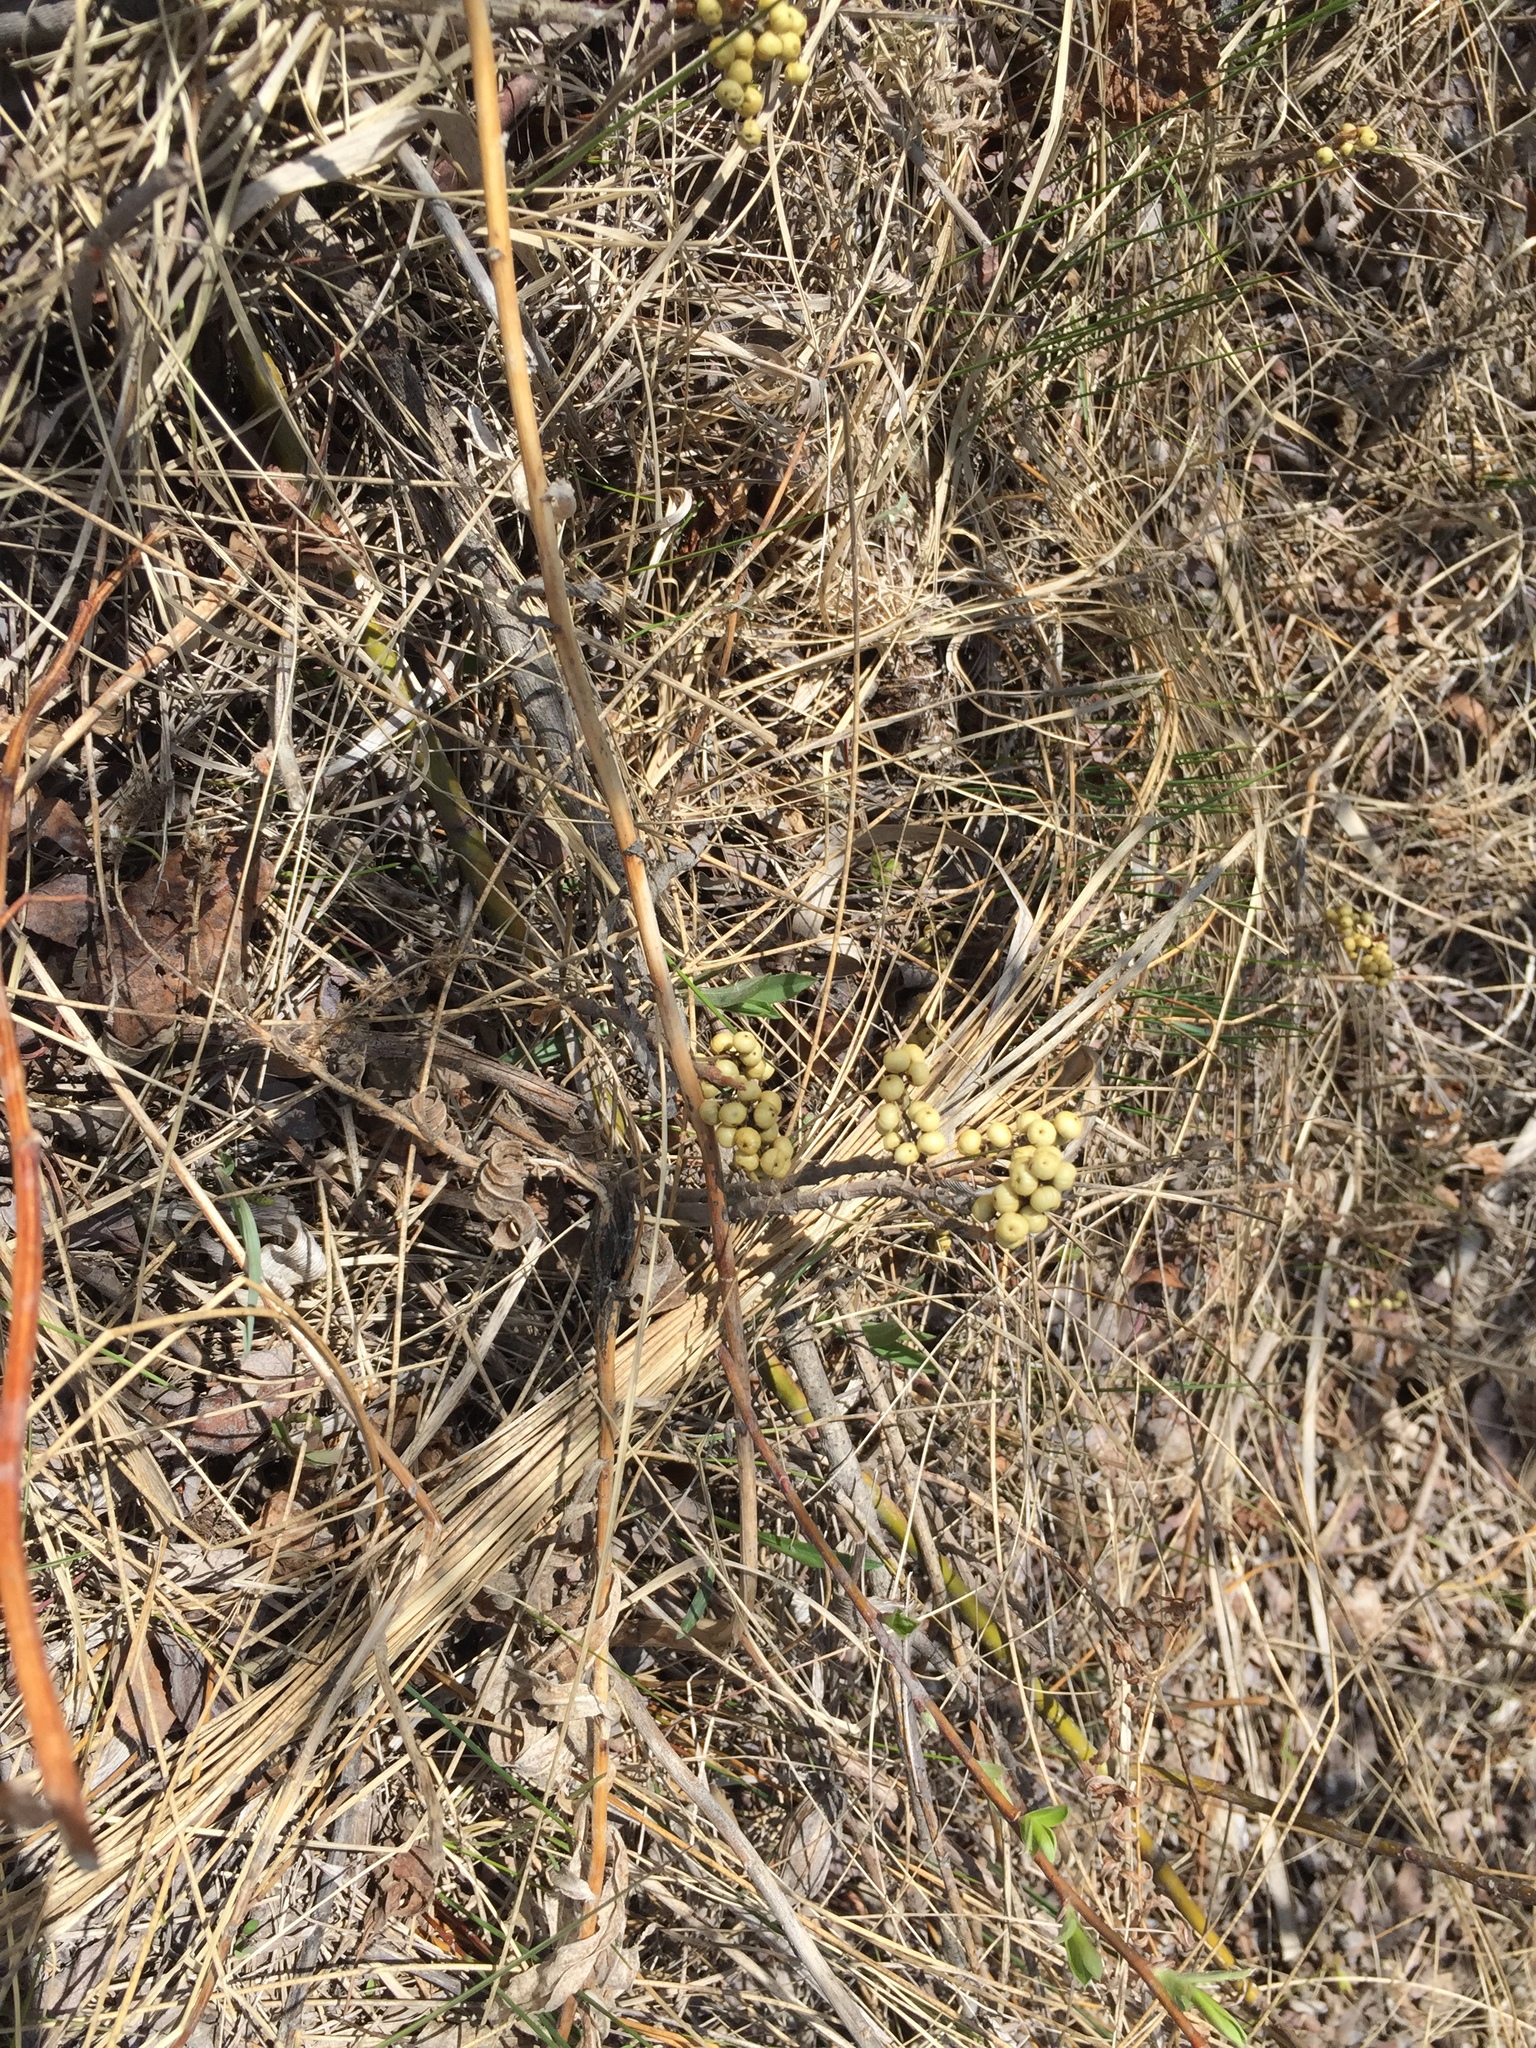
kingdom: Plantae
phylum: Tracheophyta
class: Magnoliopsida
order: Sapindales
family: Anacardiaceae
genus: Toxicodendron
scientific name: Toxicodendron rydbergii
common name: Rydberg's poison-ivy
